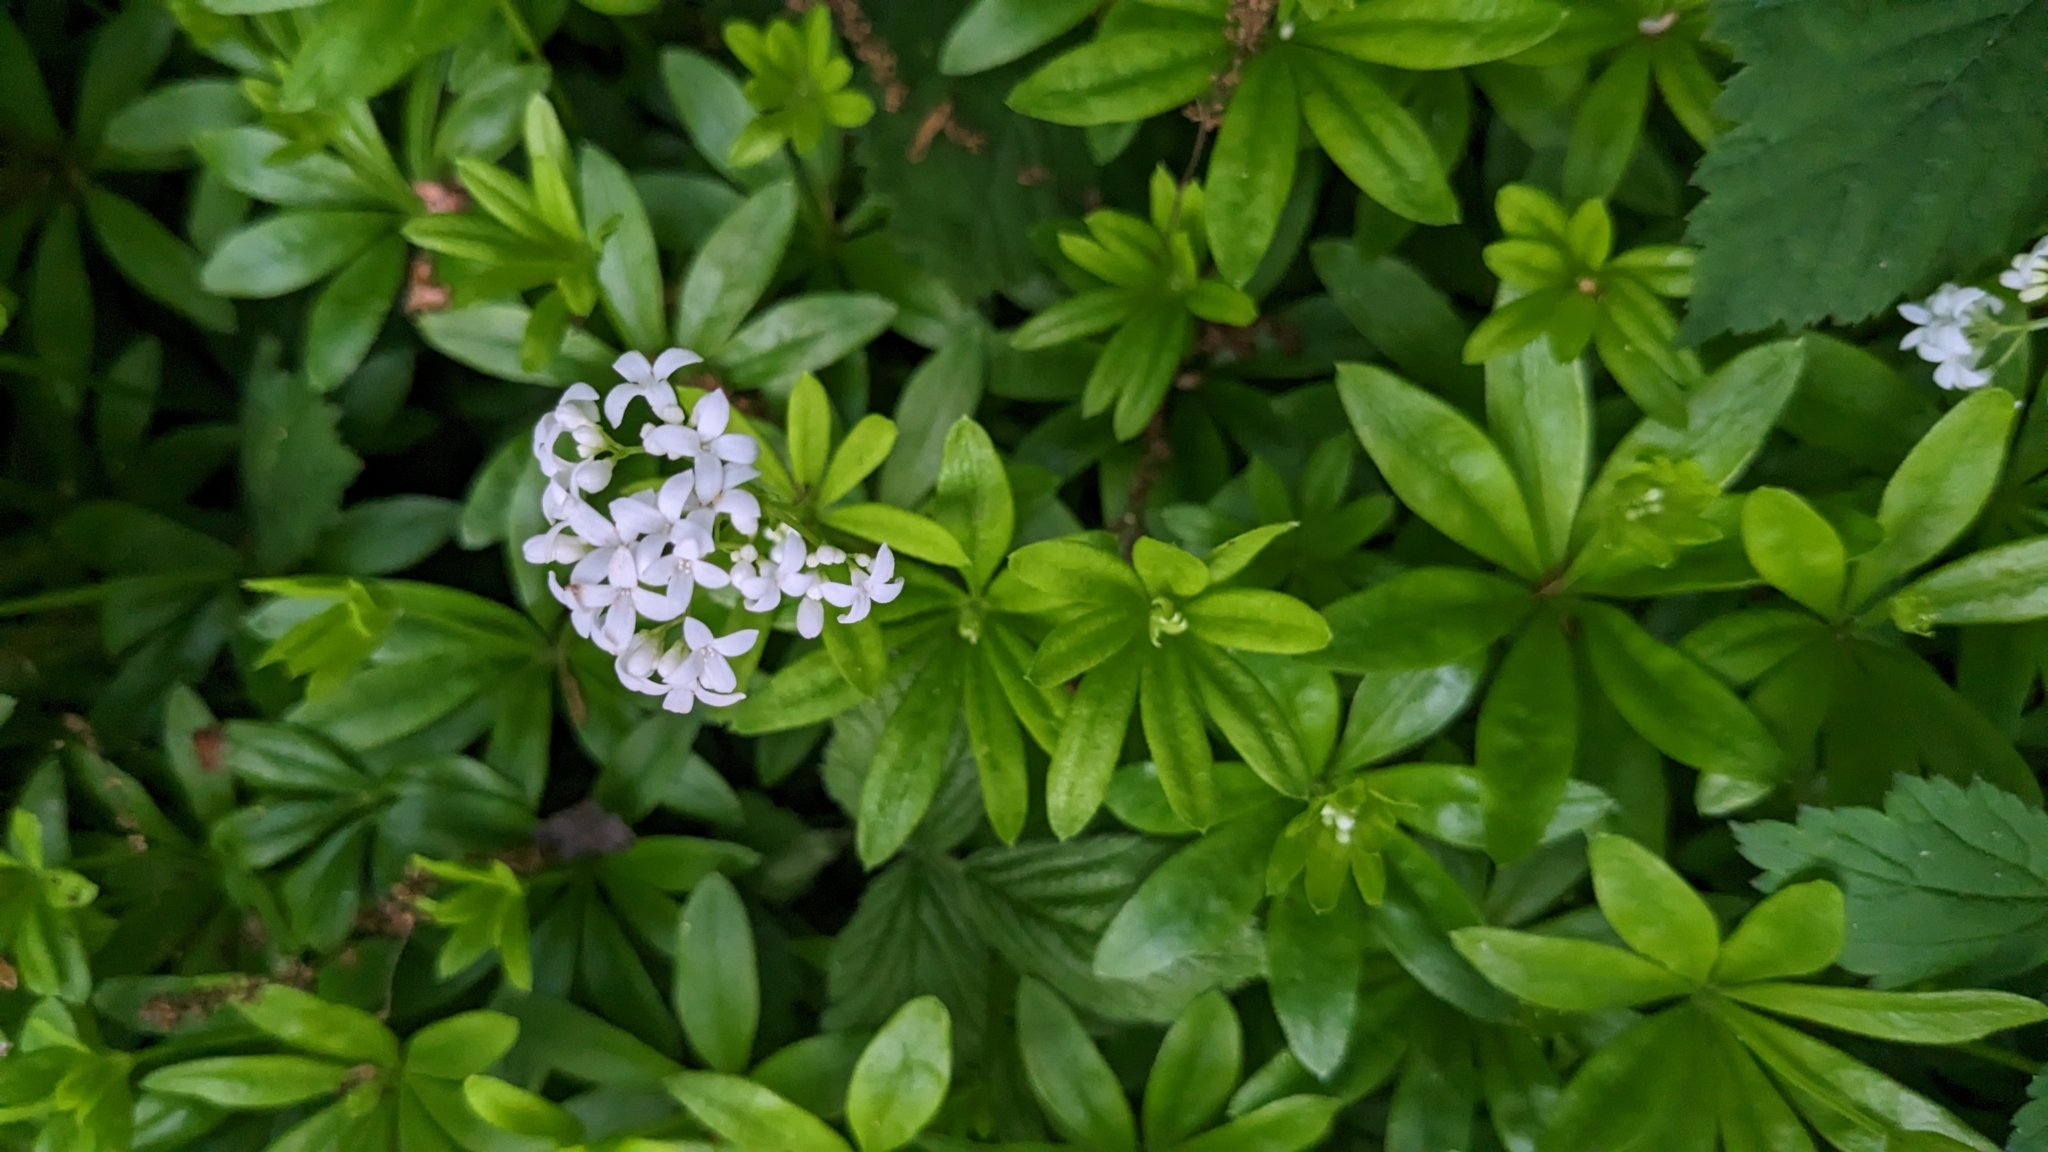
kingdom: Plantae
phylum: Tracheophyta
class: Magnoliopsida
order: Gentianales
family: Rubiaceae
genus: Galium
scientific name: Galium odoratum
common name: Sweet woodruff
